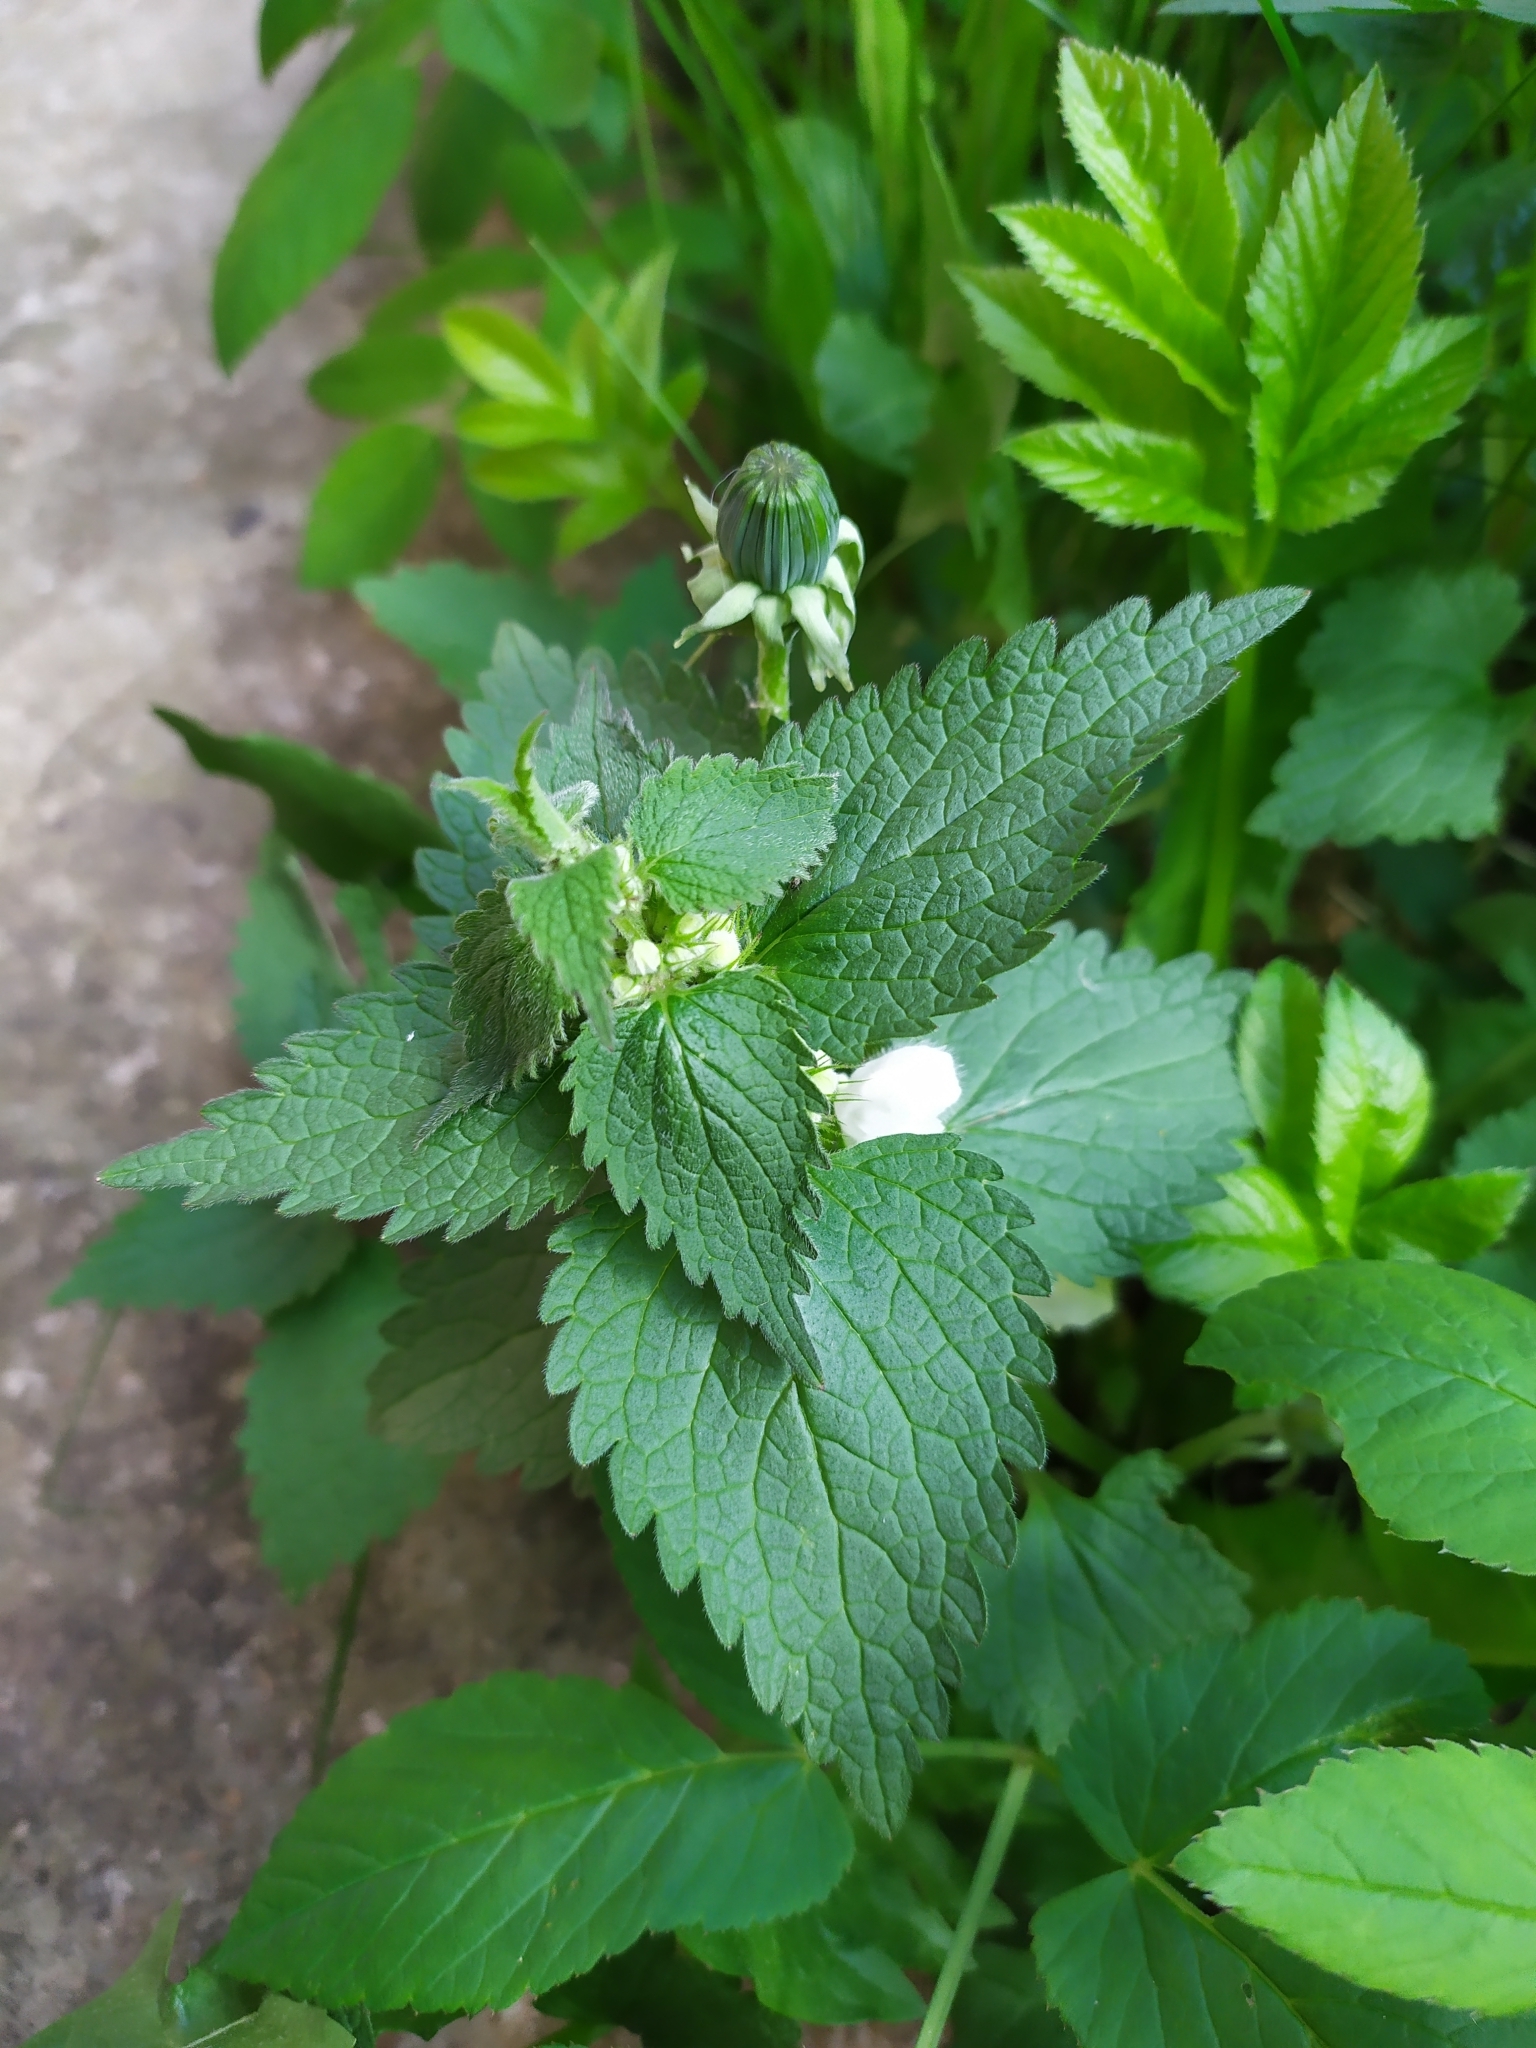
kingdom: Plantae
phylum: Tracheophyta
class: Magnoliopsida
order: Lamiales
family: Lamiaceae
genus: Lamium
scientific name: Lamium album
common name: White dead-nettle
